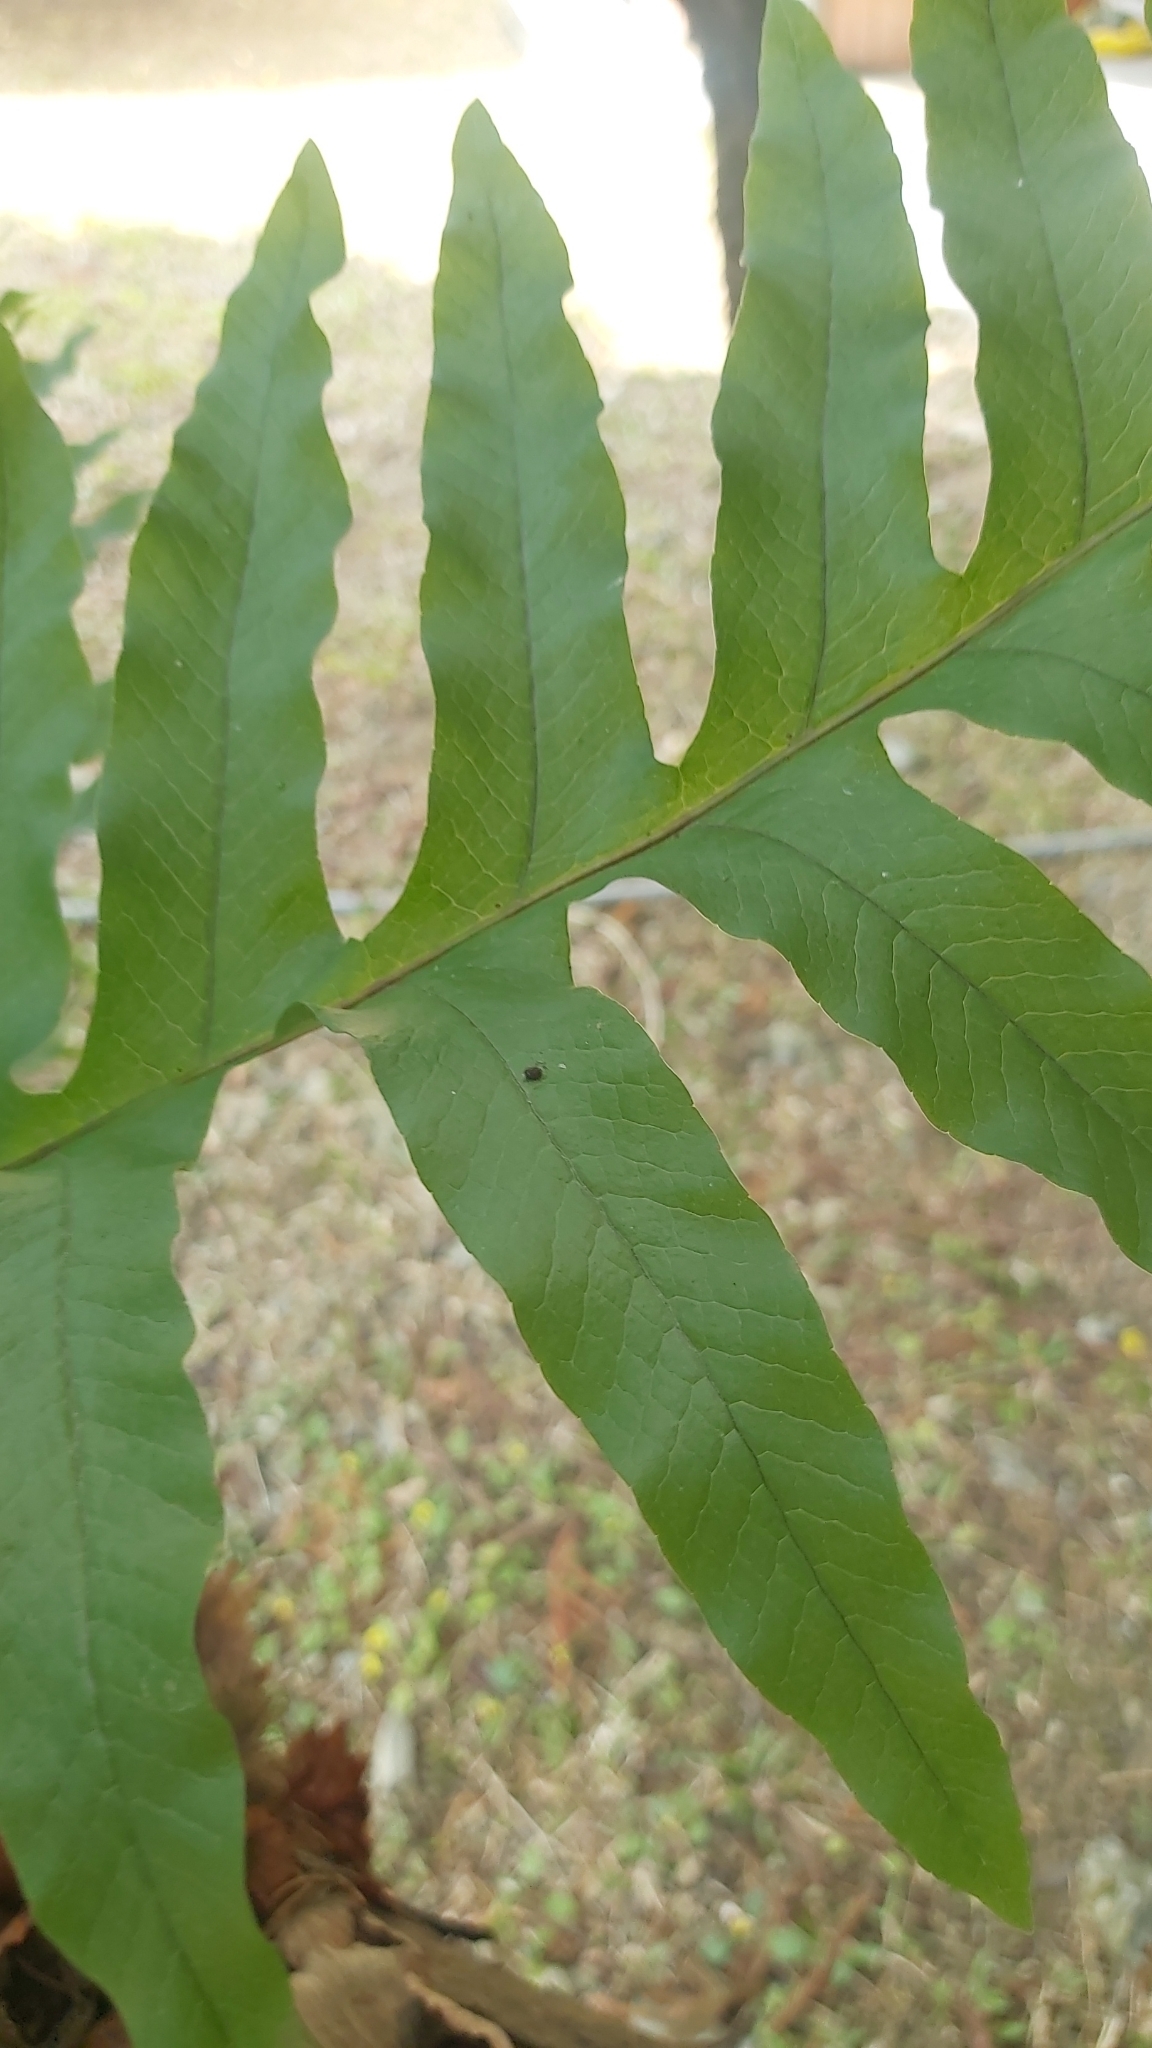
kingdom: Plantae
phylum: Tracheophyta
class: Polypodiopsida
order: Polypodiales
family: Polypodiaceae
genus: Drynaria
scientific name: Drynaria roosii
